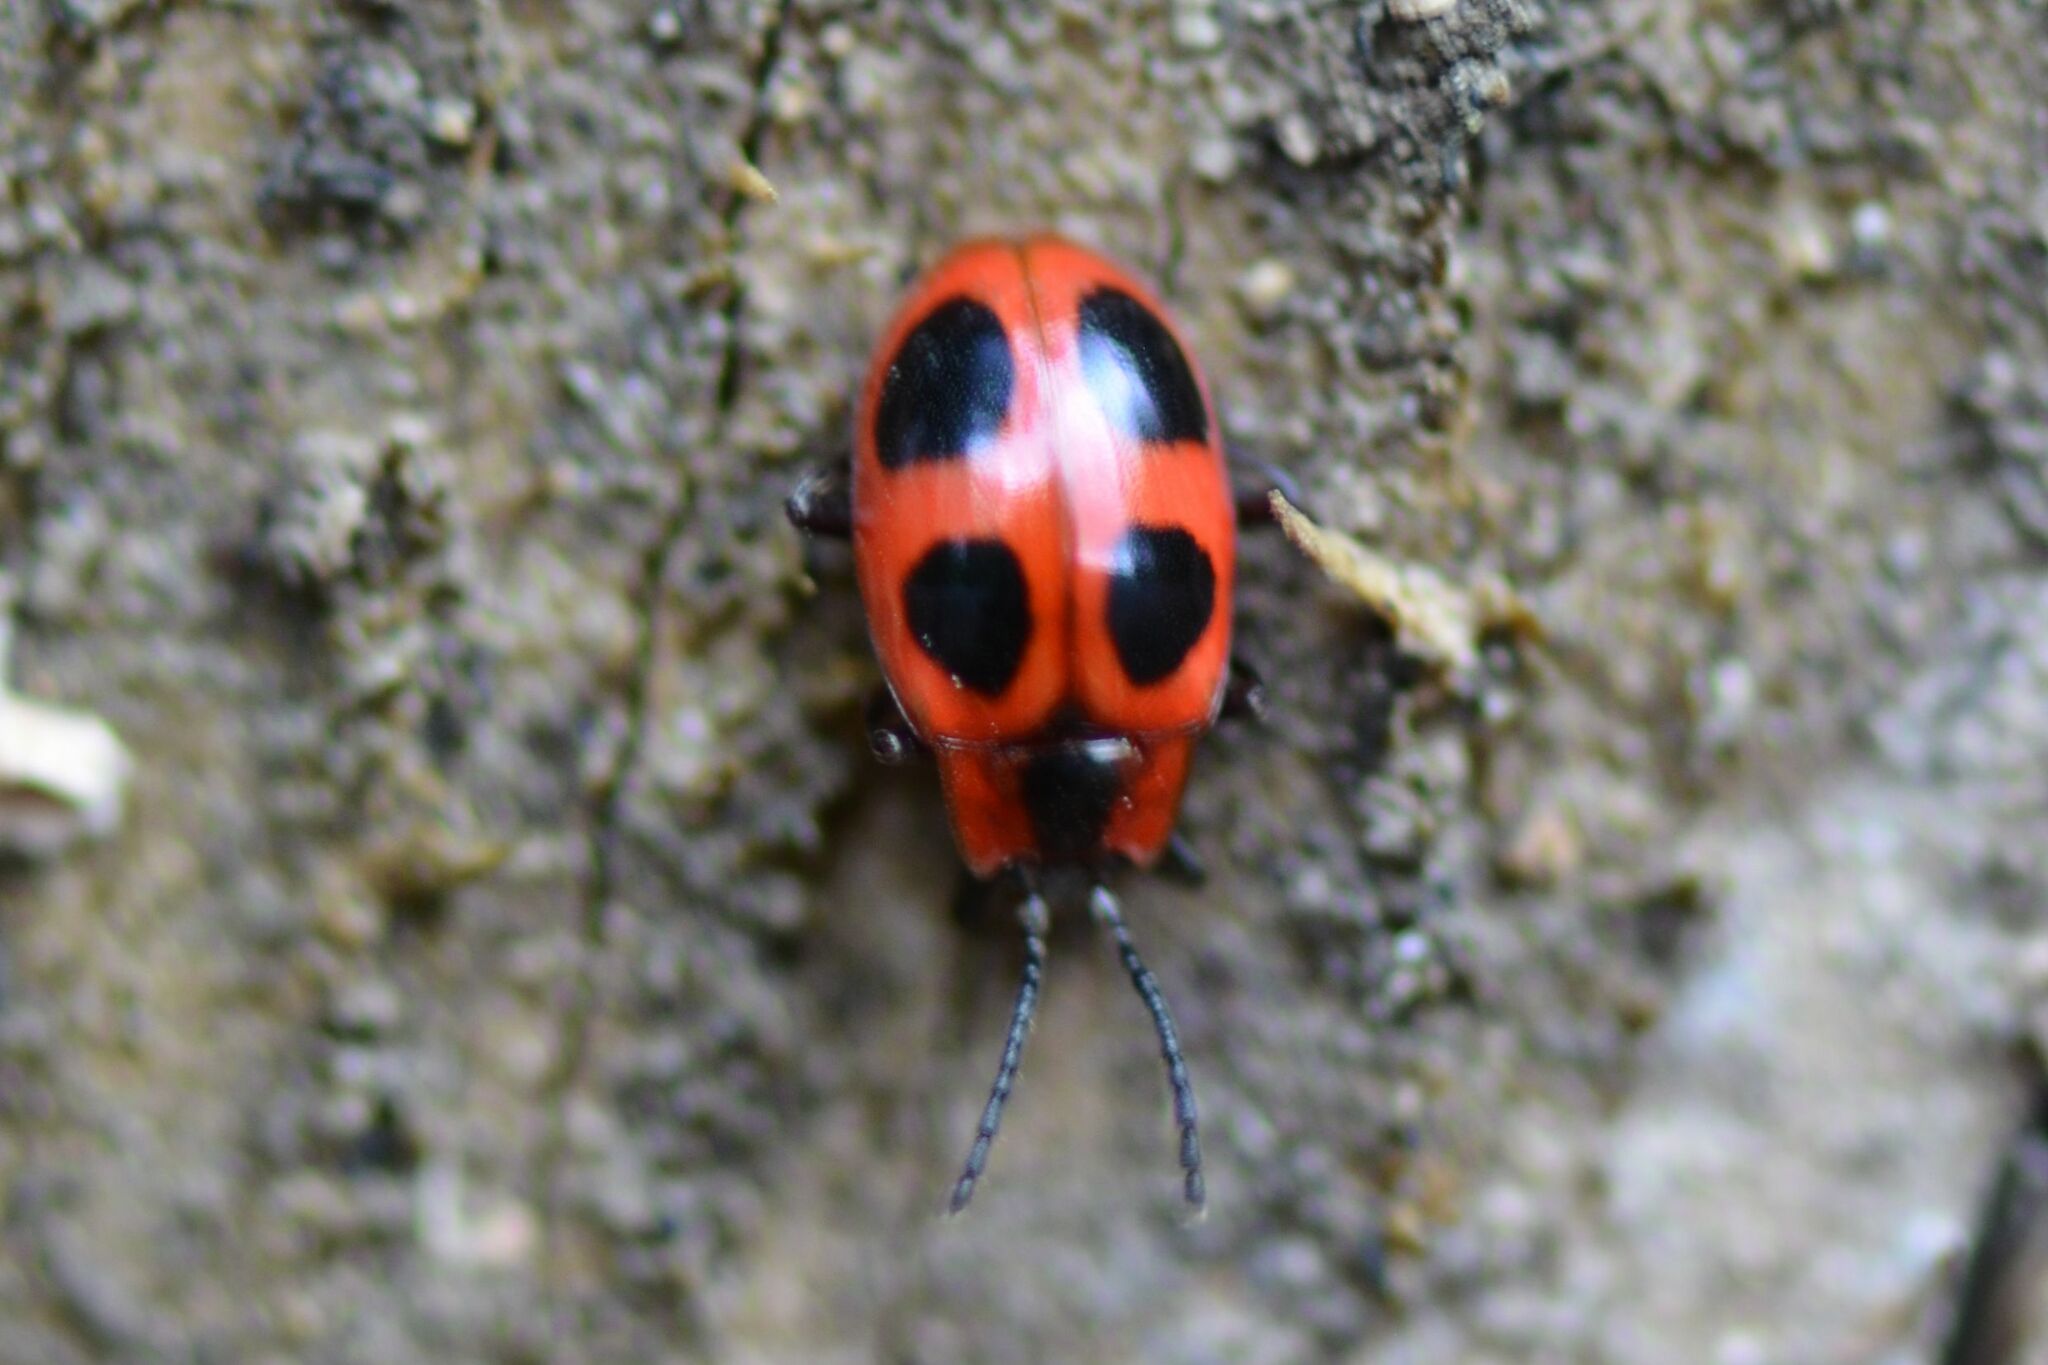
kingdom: Animalia
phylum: Arthropoda
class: Insecta
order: Coleoptera
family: Endomychidae
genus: Endomychus
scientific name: Endomychus coccineus
